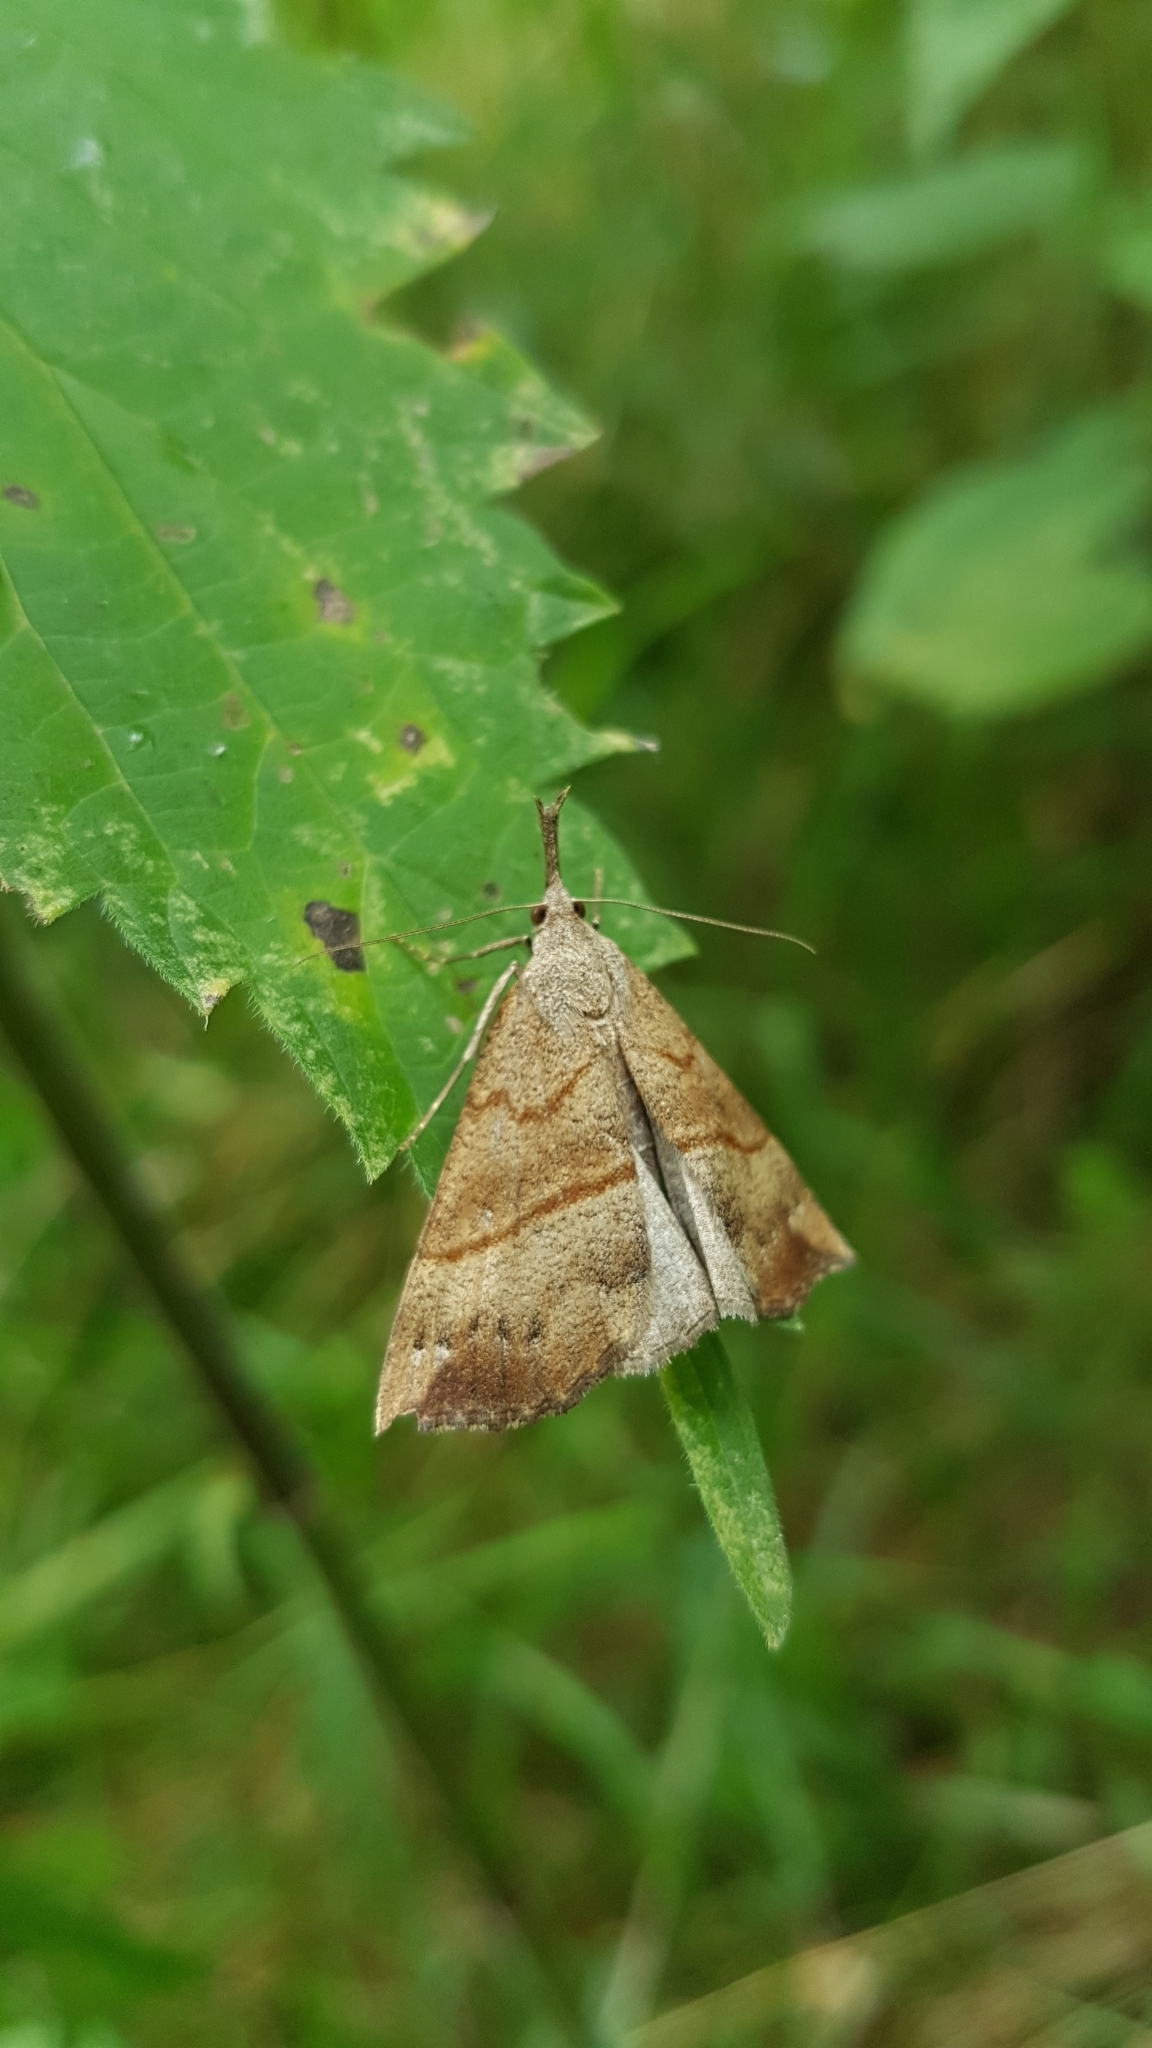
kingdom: Animalia
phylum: Arthropoda
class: Insecta
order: Lepidoptera
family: Erebidae
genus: Hypena
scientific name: Hypena proboscidalis
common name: Snout
